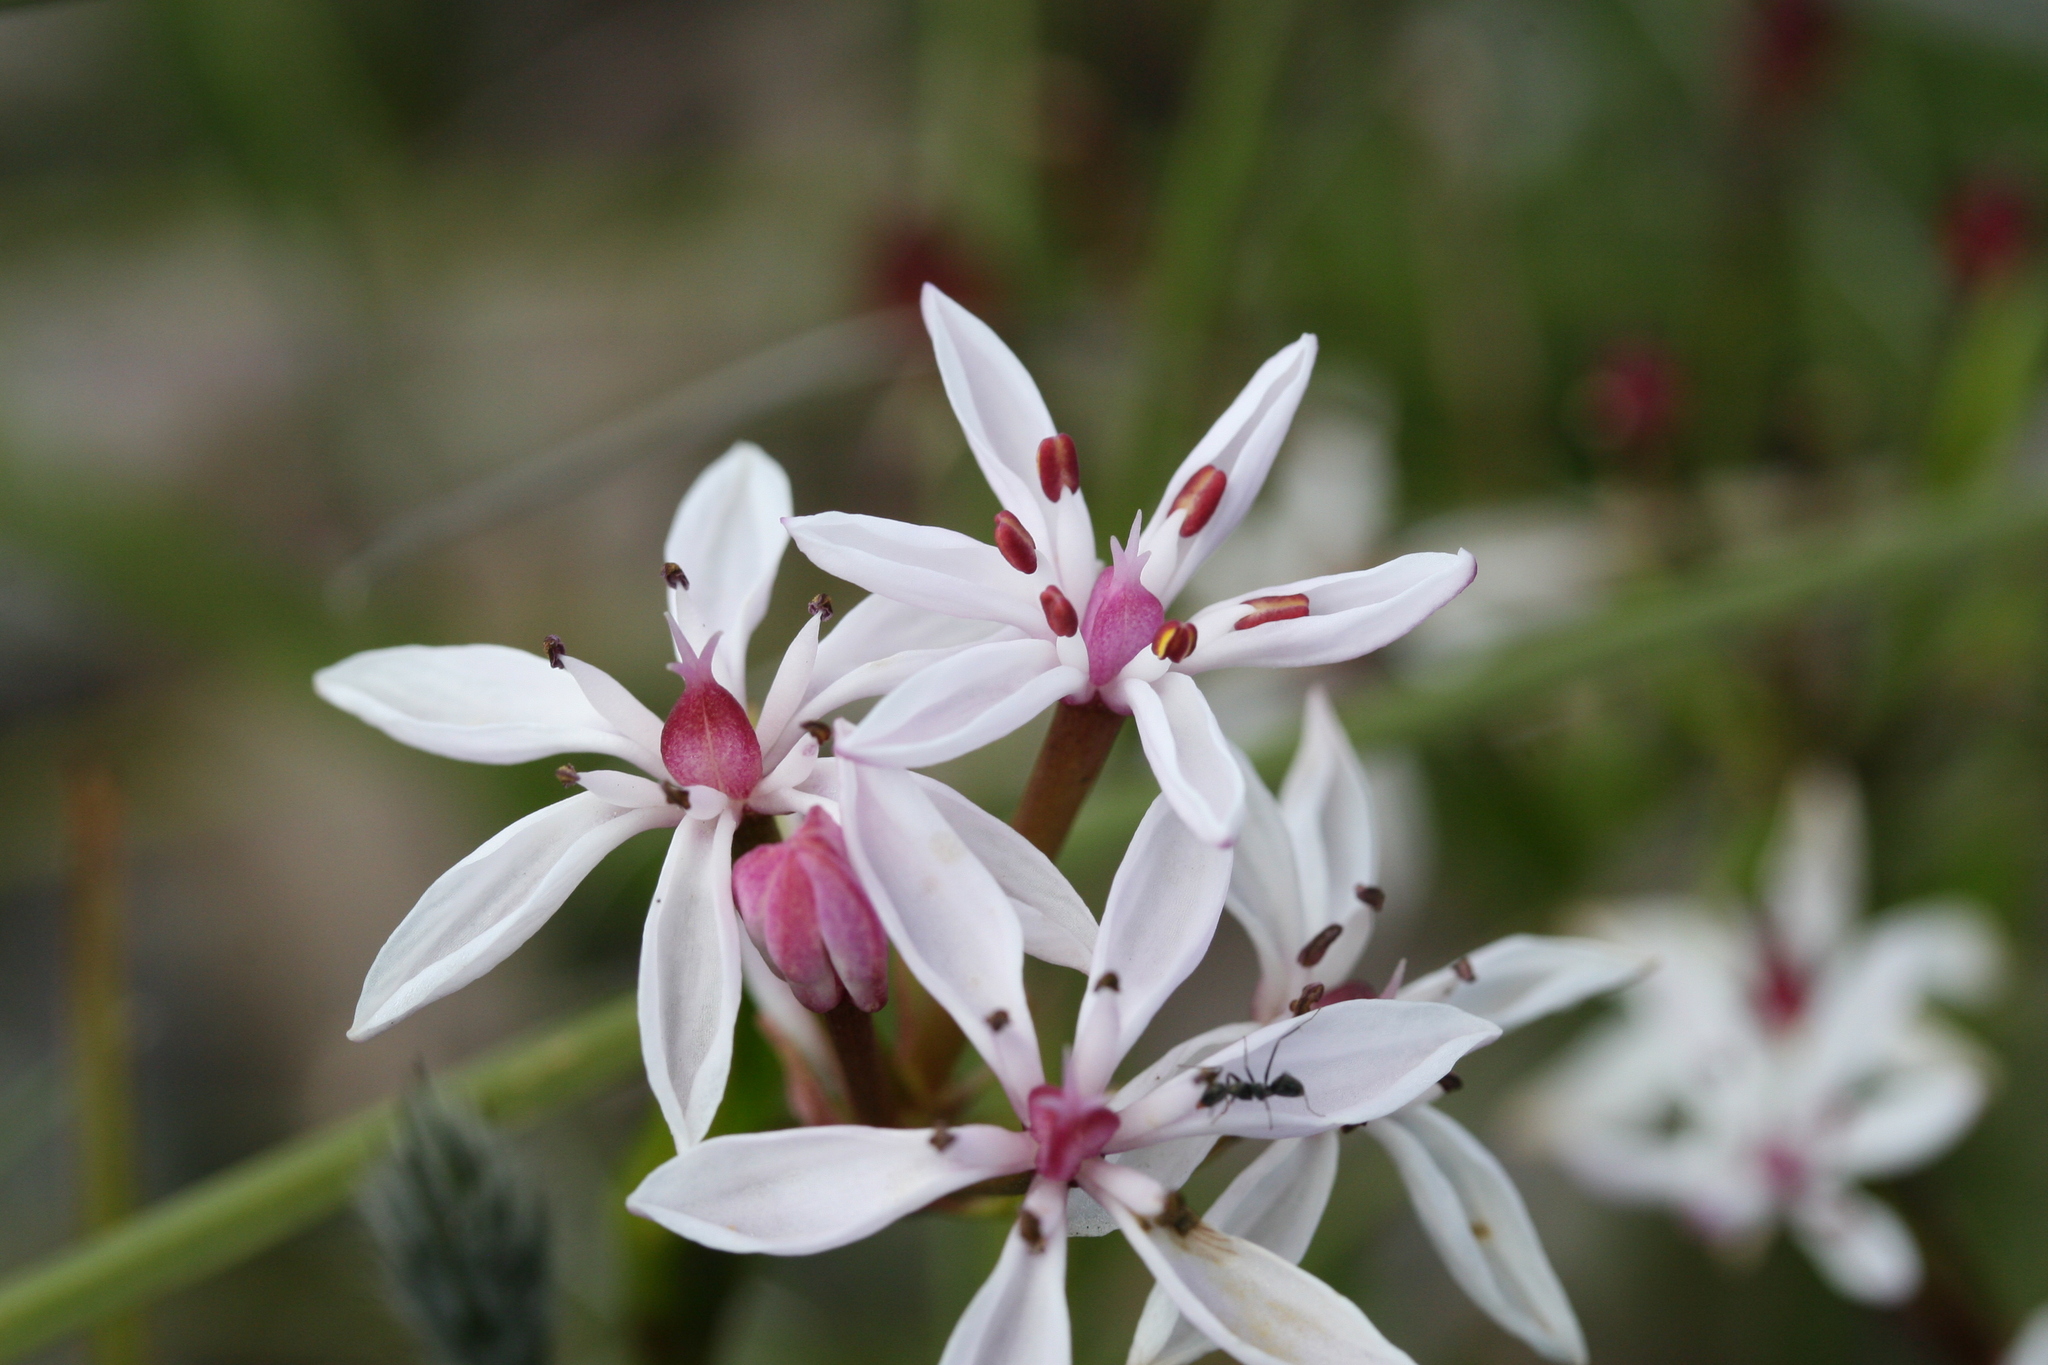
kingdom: Plantae
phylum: Tracheophyta
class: Liliopsida
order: Liliales
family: Colchicaceae
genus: Burchardia
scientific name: Burchardia multiflora
